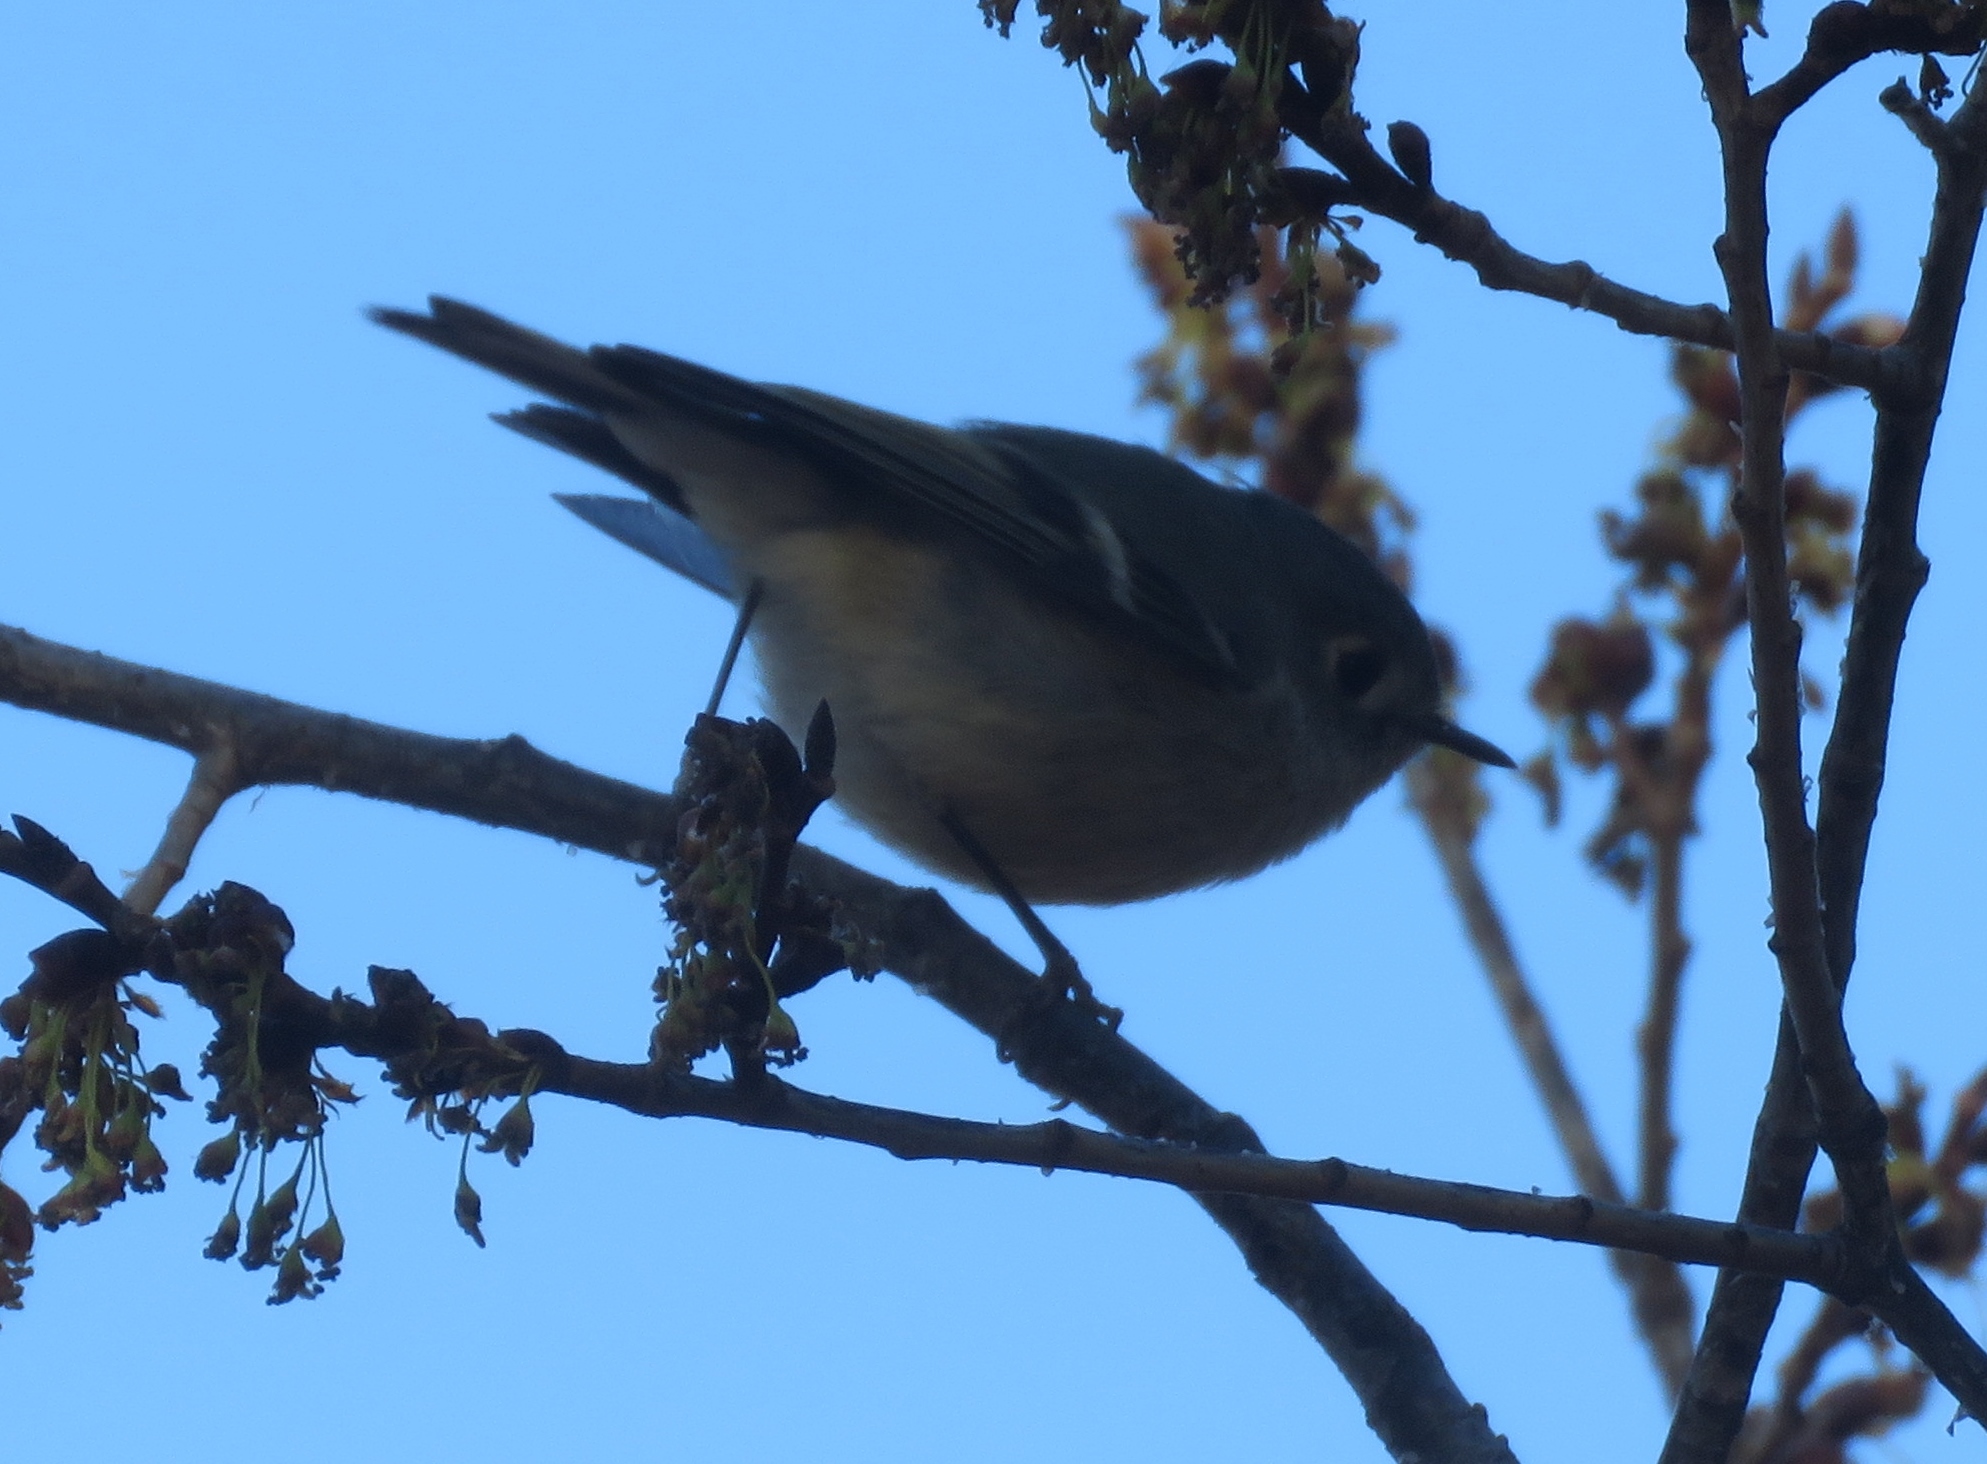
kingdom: Animalia
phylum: Chordata
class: Aves
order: Passeriformes
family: Regulidae
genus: Regulus
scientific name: Regulus calendula
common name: Ruby-crowned kinglet
